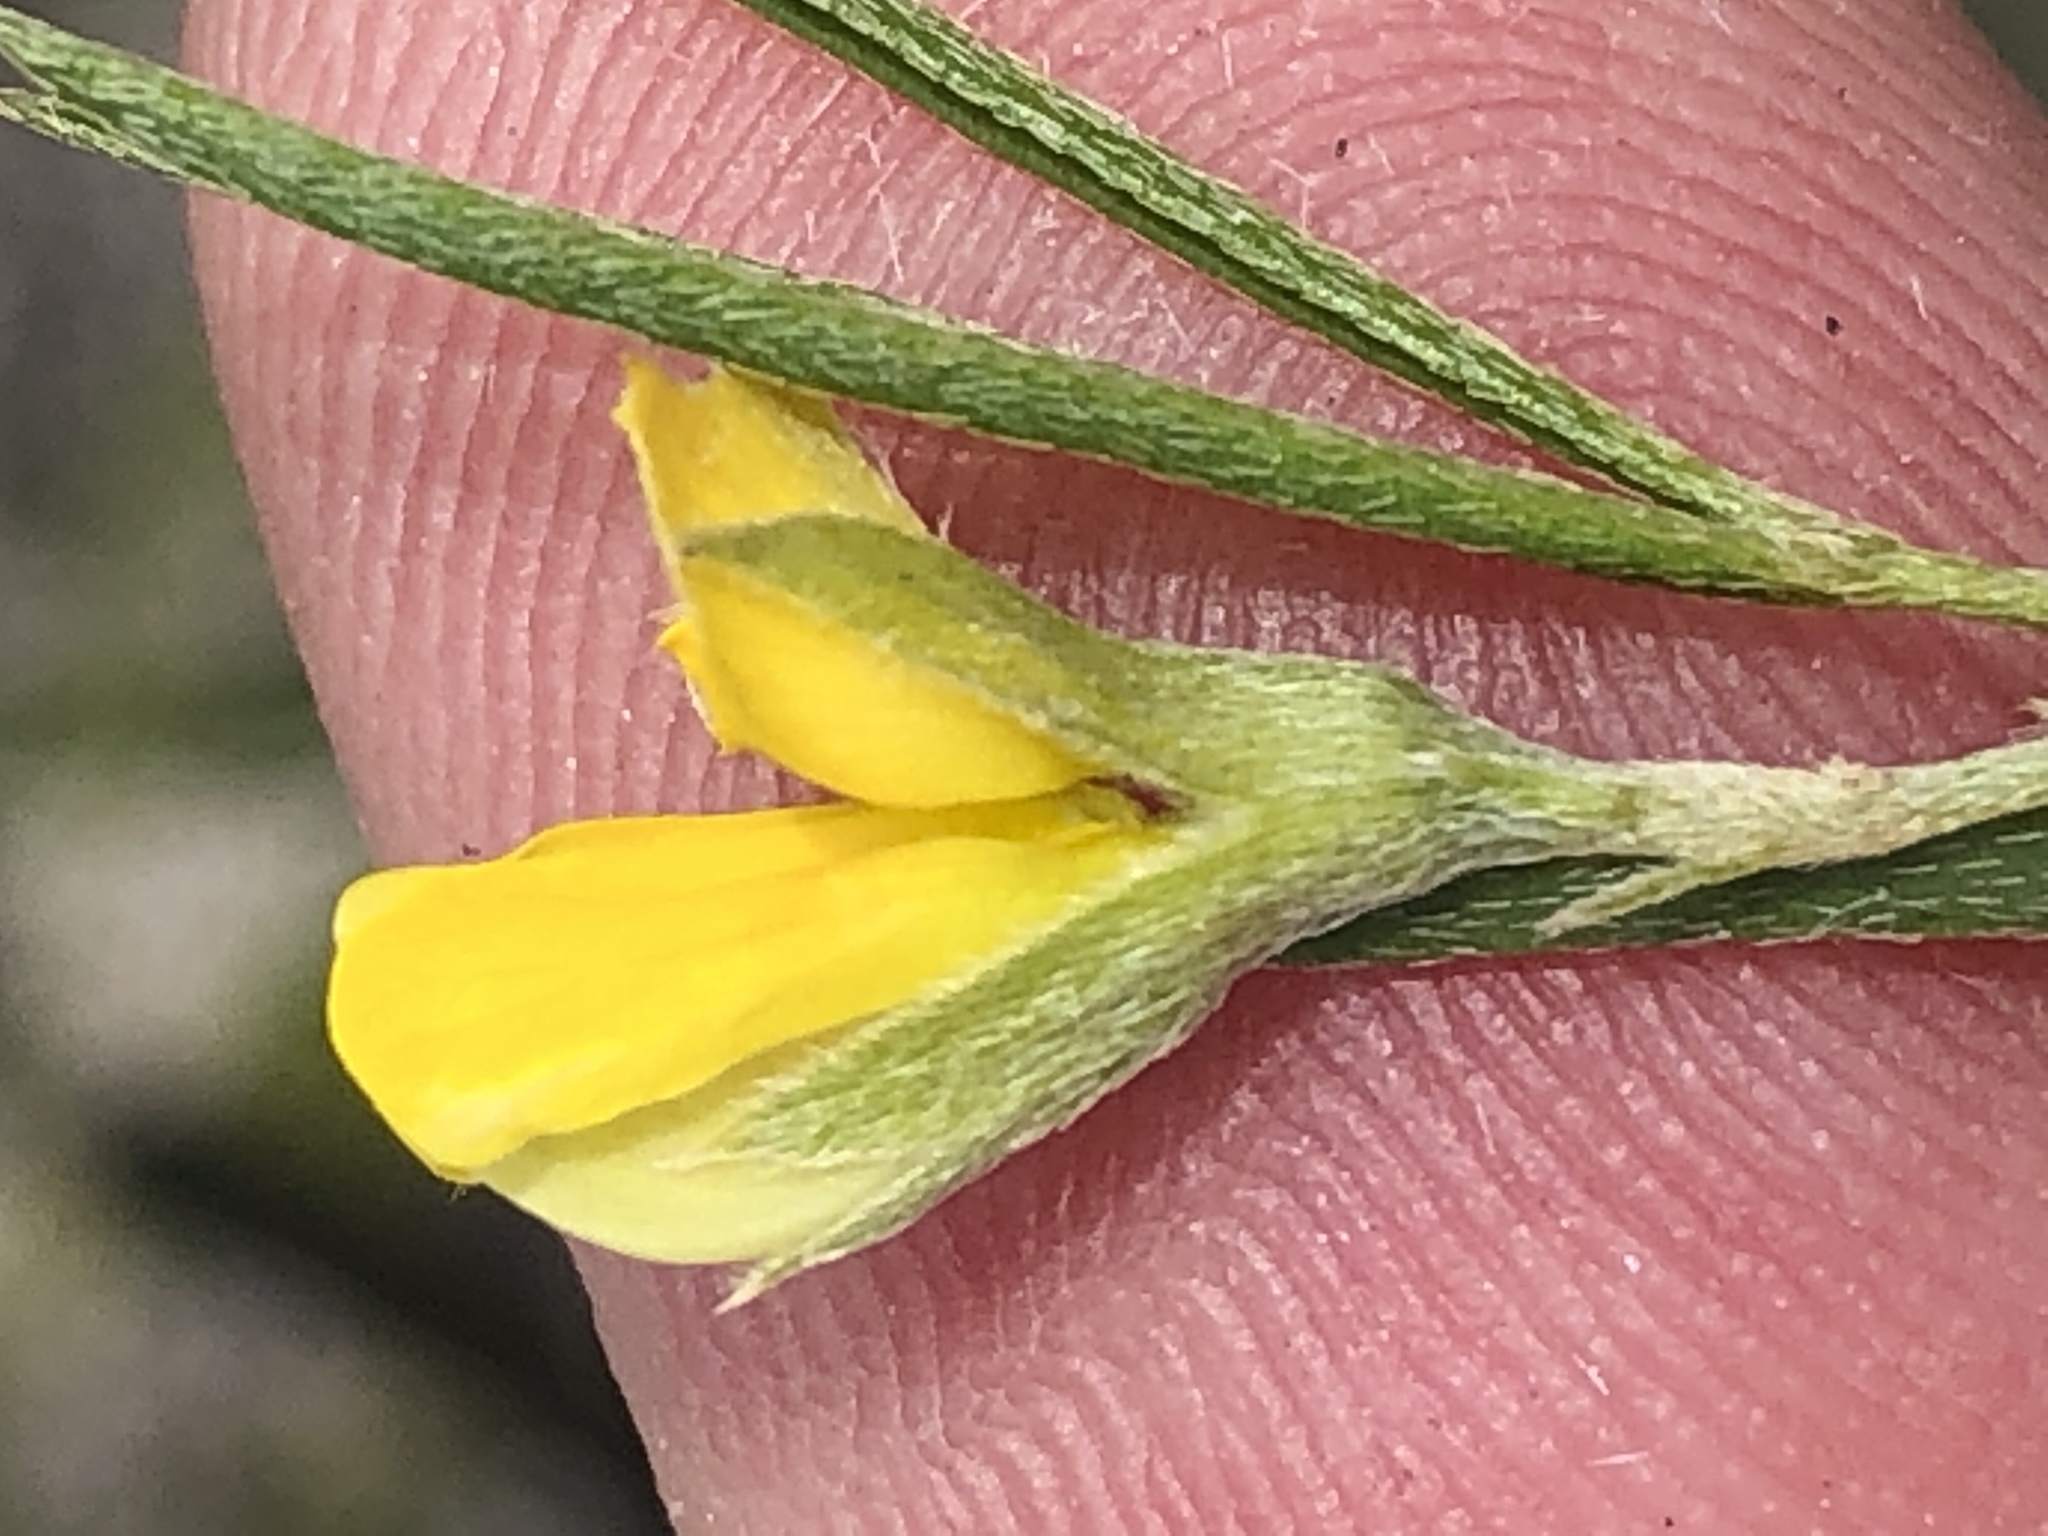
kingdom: Plantae
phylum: Tracheophyta
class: Magnoliopsida
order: Fabales
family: Fabaceae
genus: Argyrolobium
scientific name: Argyrolobium harveyanum
